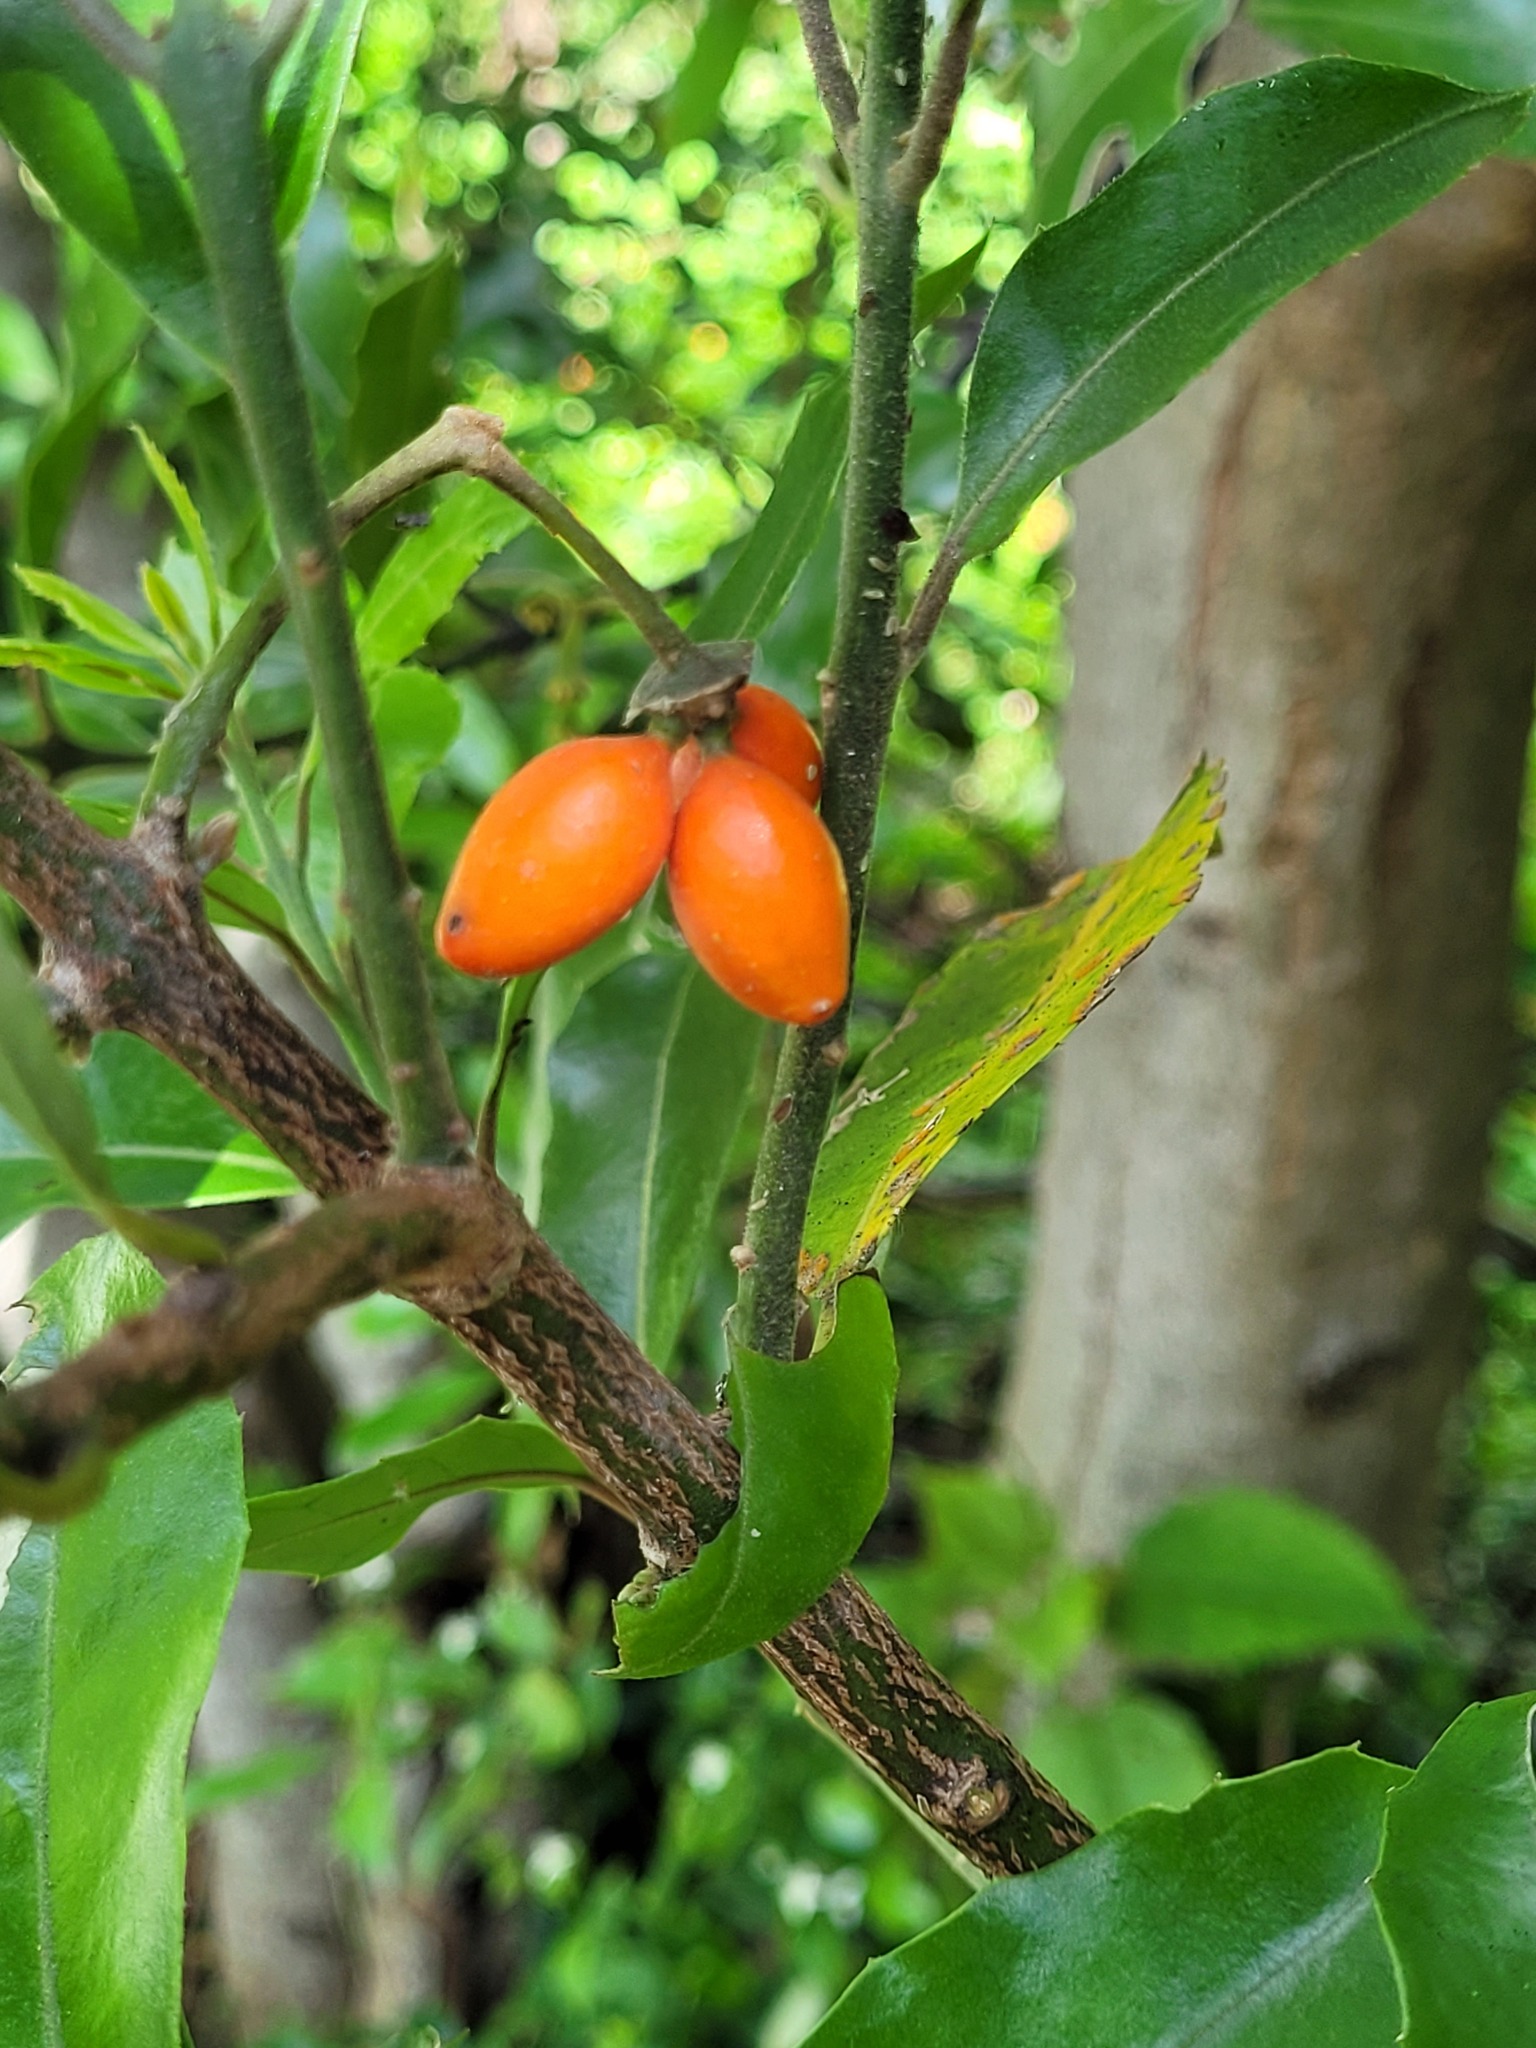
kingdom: Plantae
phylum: Tracheophyta
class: Magnoliopsida
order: Laurales
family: Monimiaceae
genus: Hedycarya
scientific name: Hedycarya arborea
